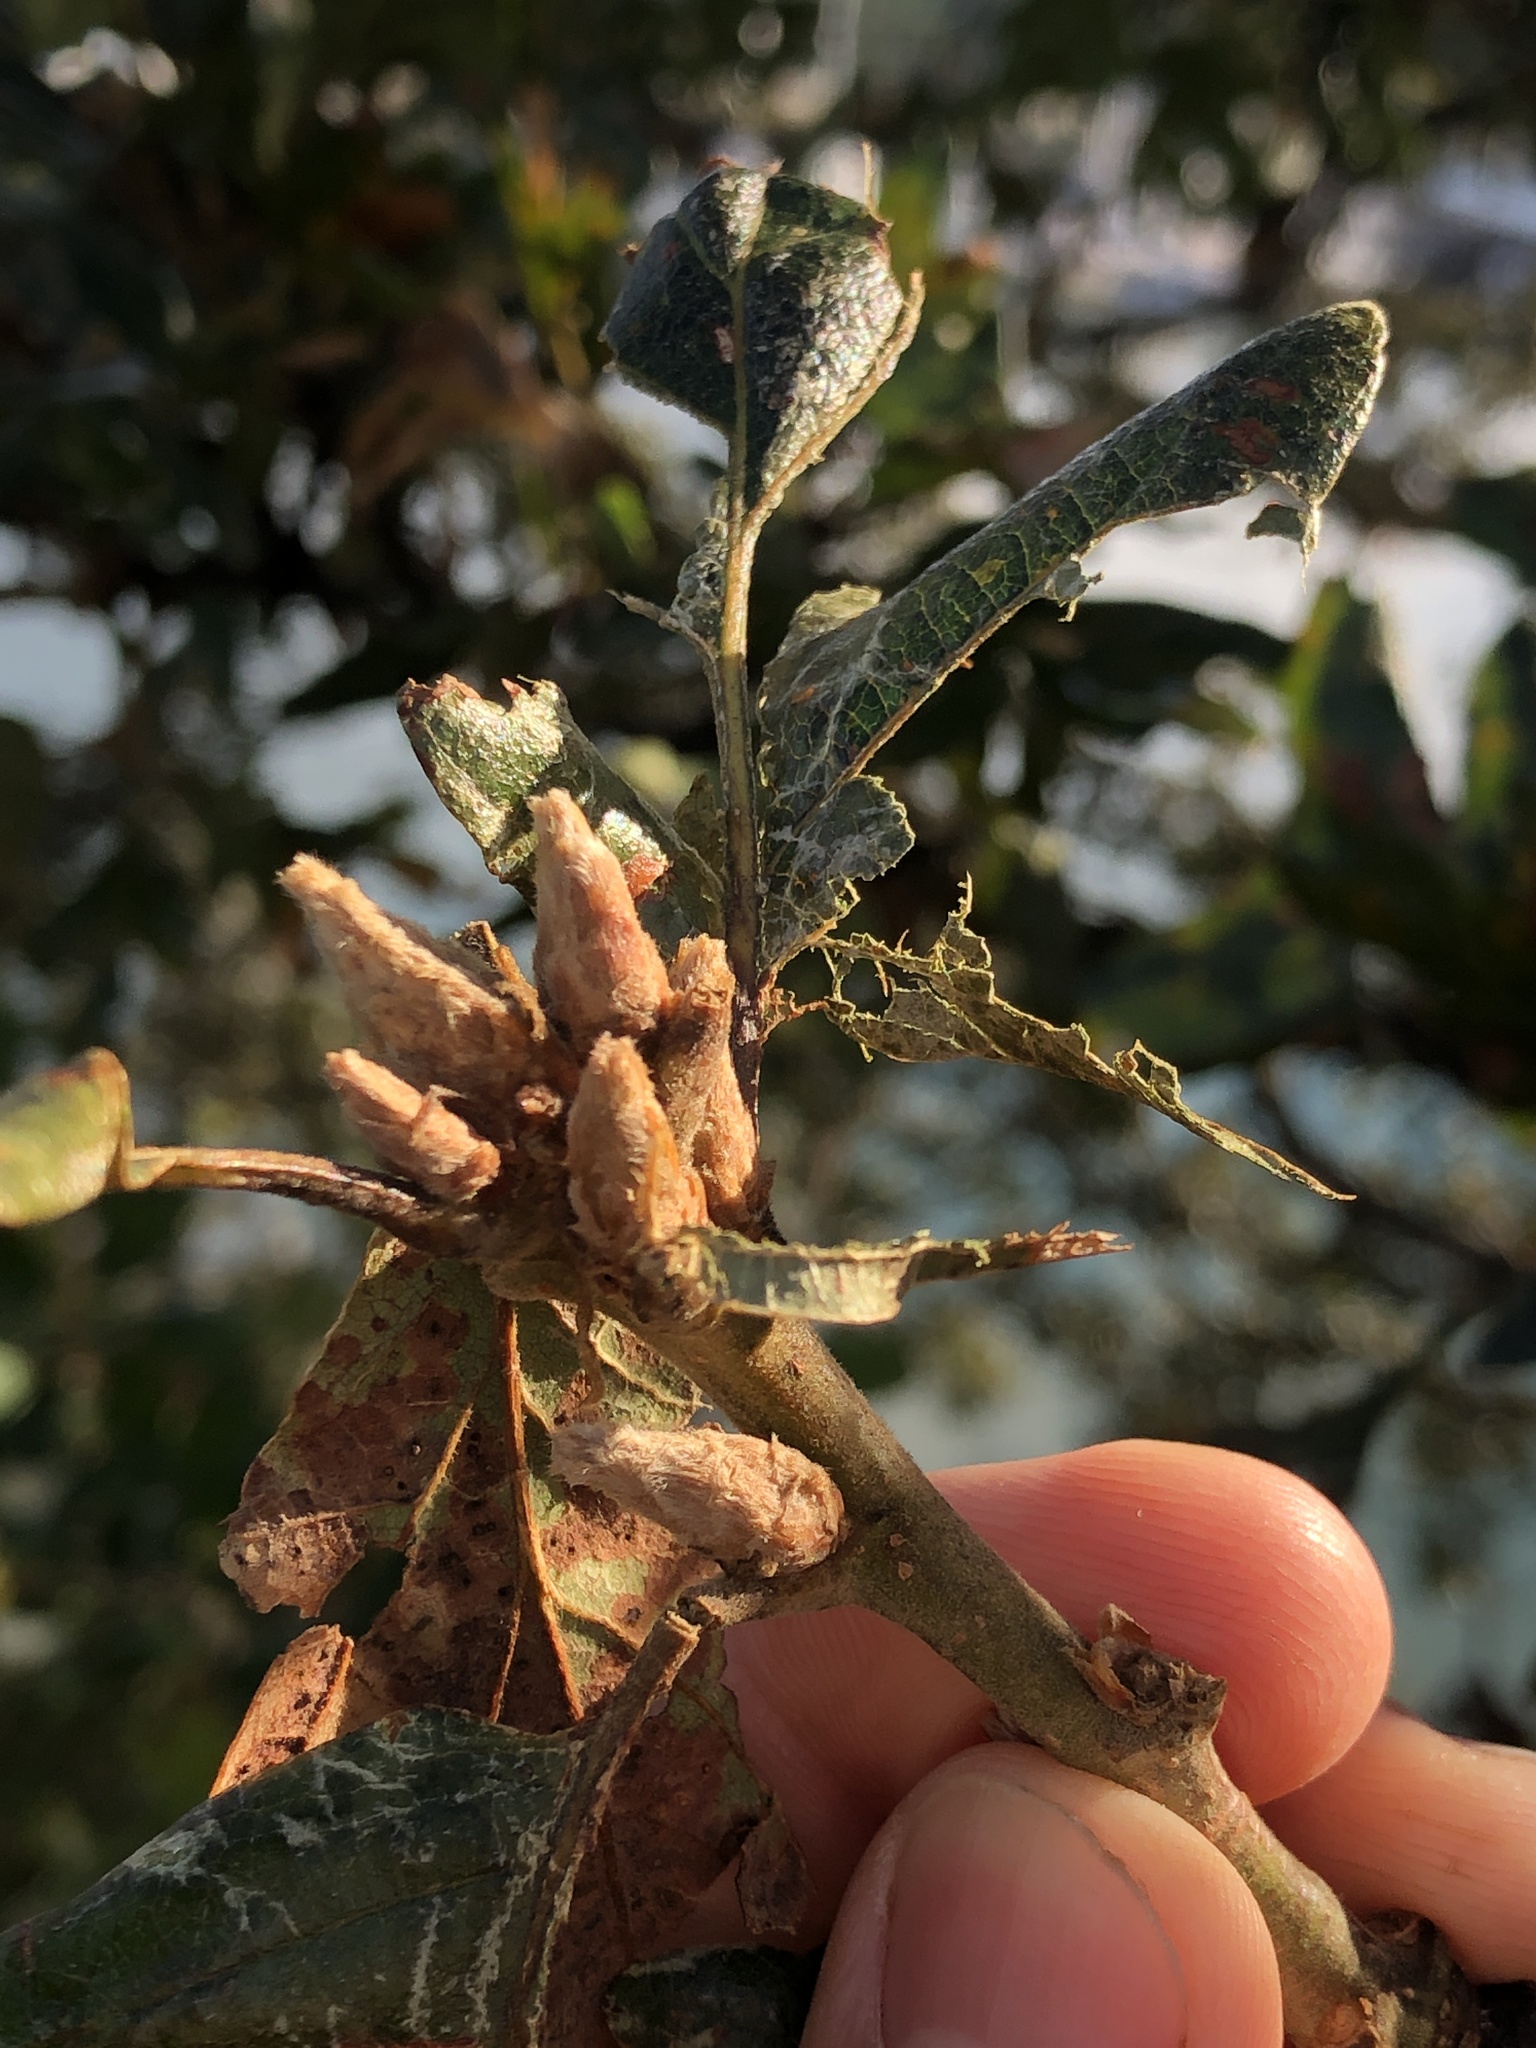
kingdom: Plantae
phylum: Tracheophyta
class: Magnoliopsida
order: Fagales
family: Fagaceae
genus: Quercus
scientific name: Quercus garryana
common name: Garry oak
